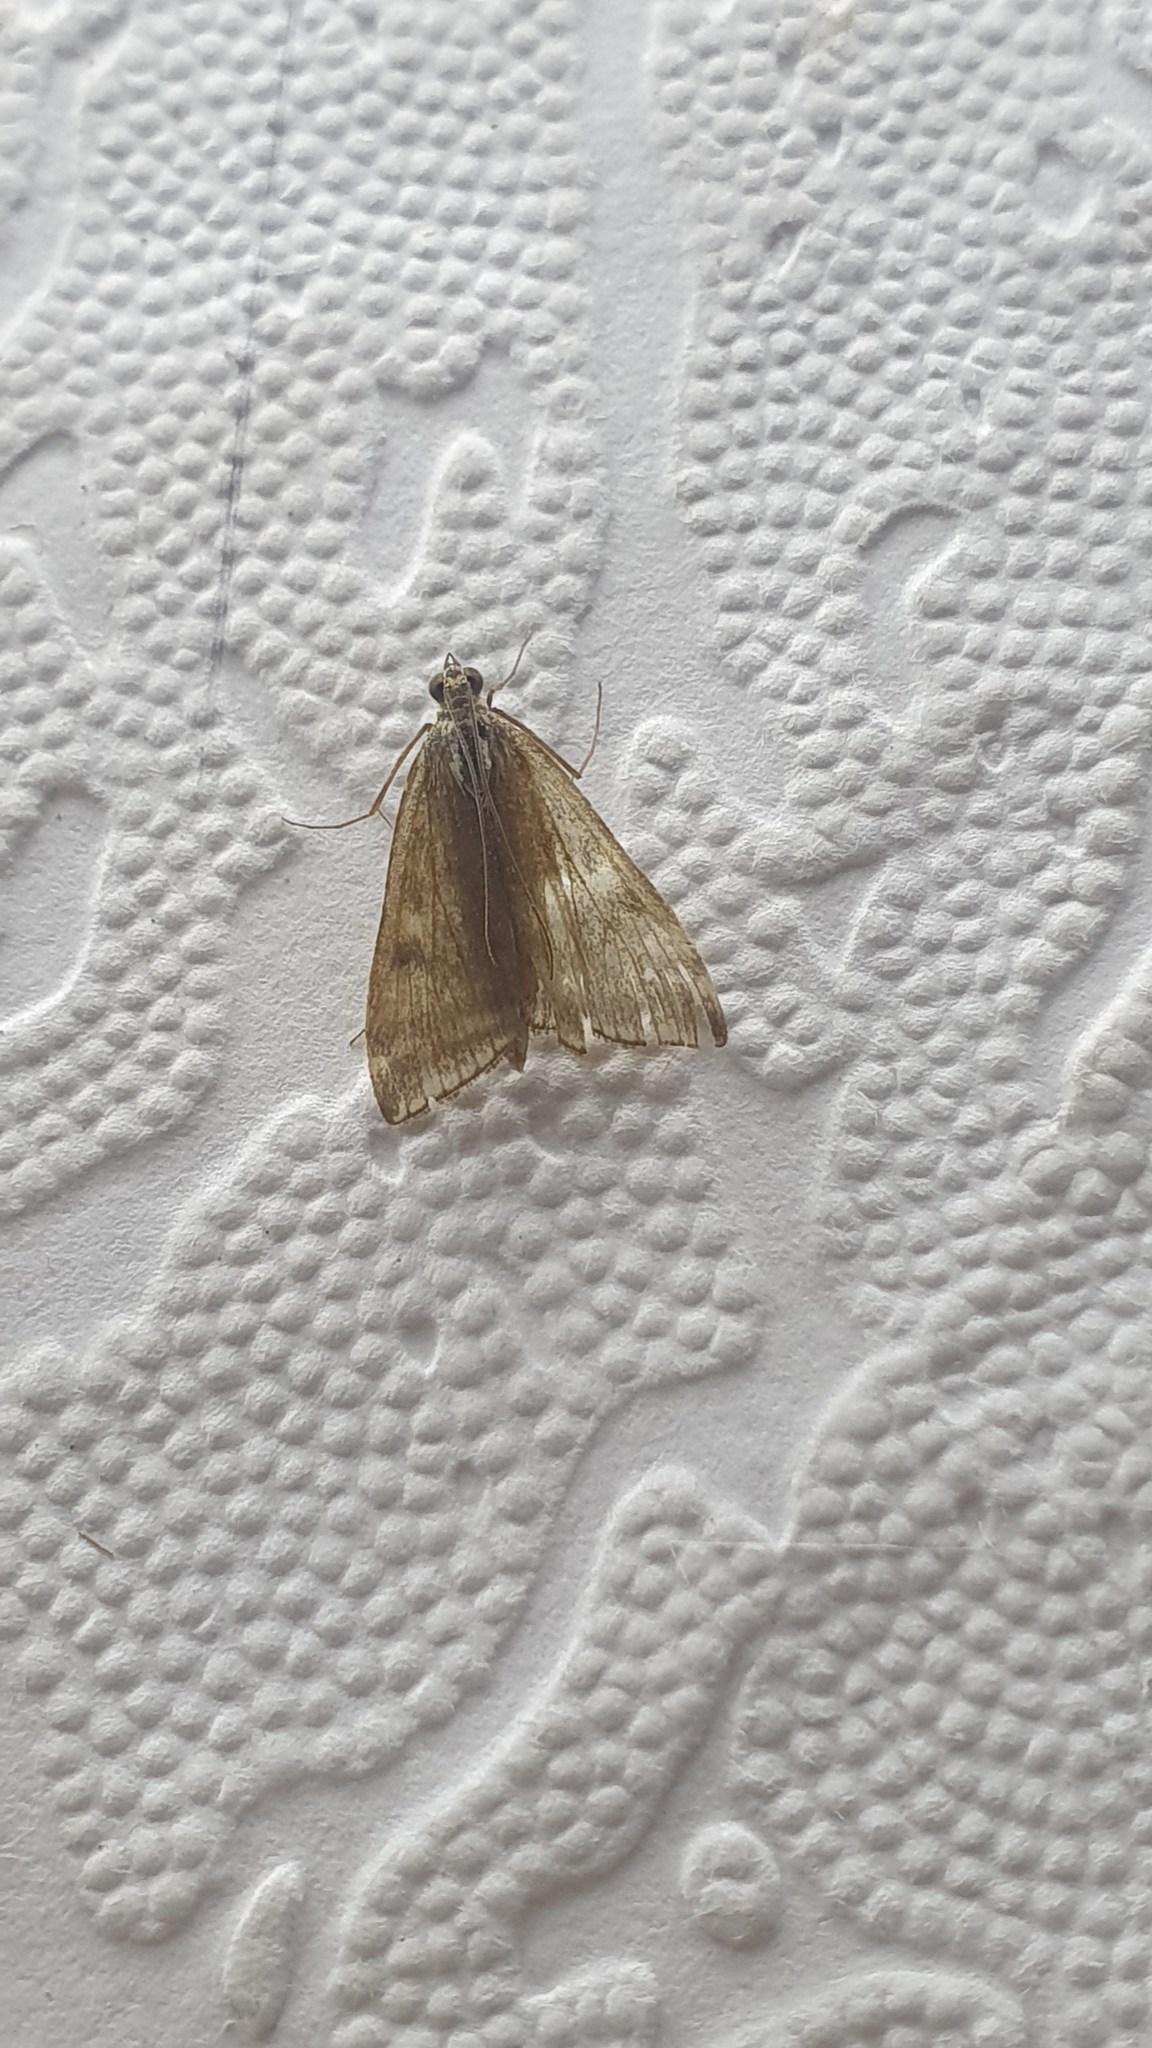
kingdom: Animalia
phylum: Arthropoda
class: Insecta
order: Lepidoptera
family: Crambidae
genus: Loxostege
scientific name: Loxostege sticticalis
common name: Crambid moth
